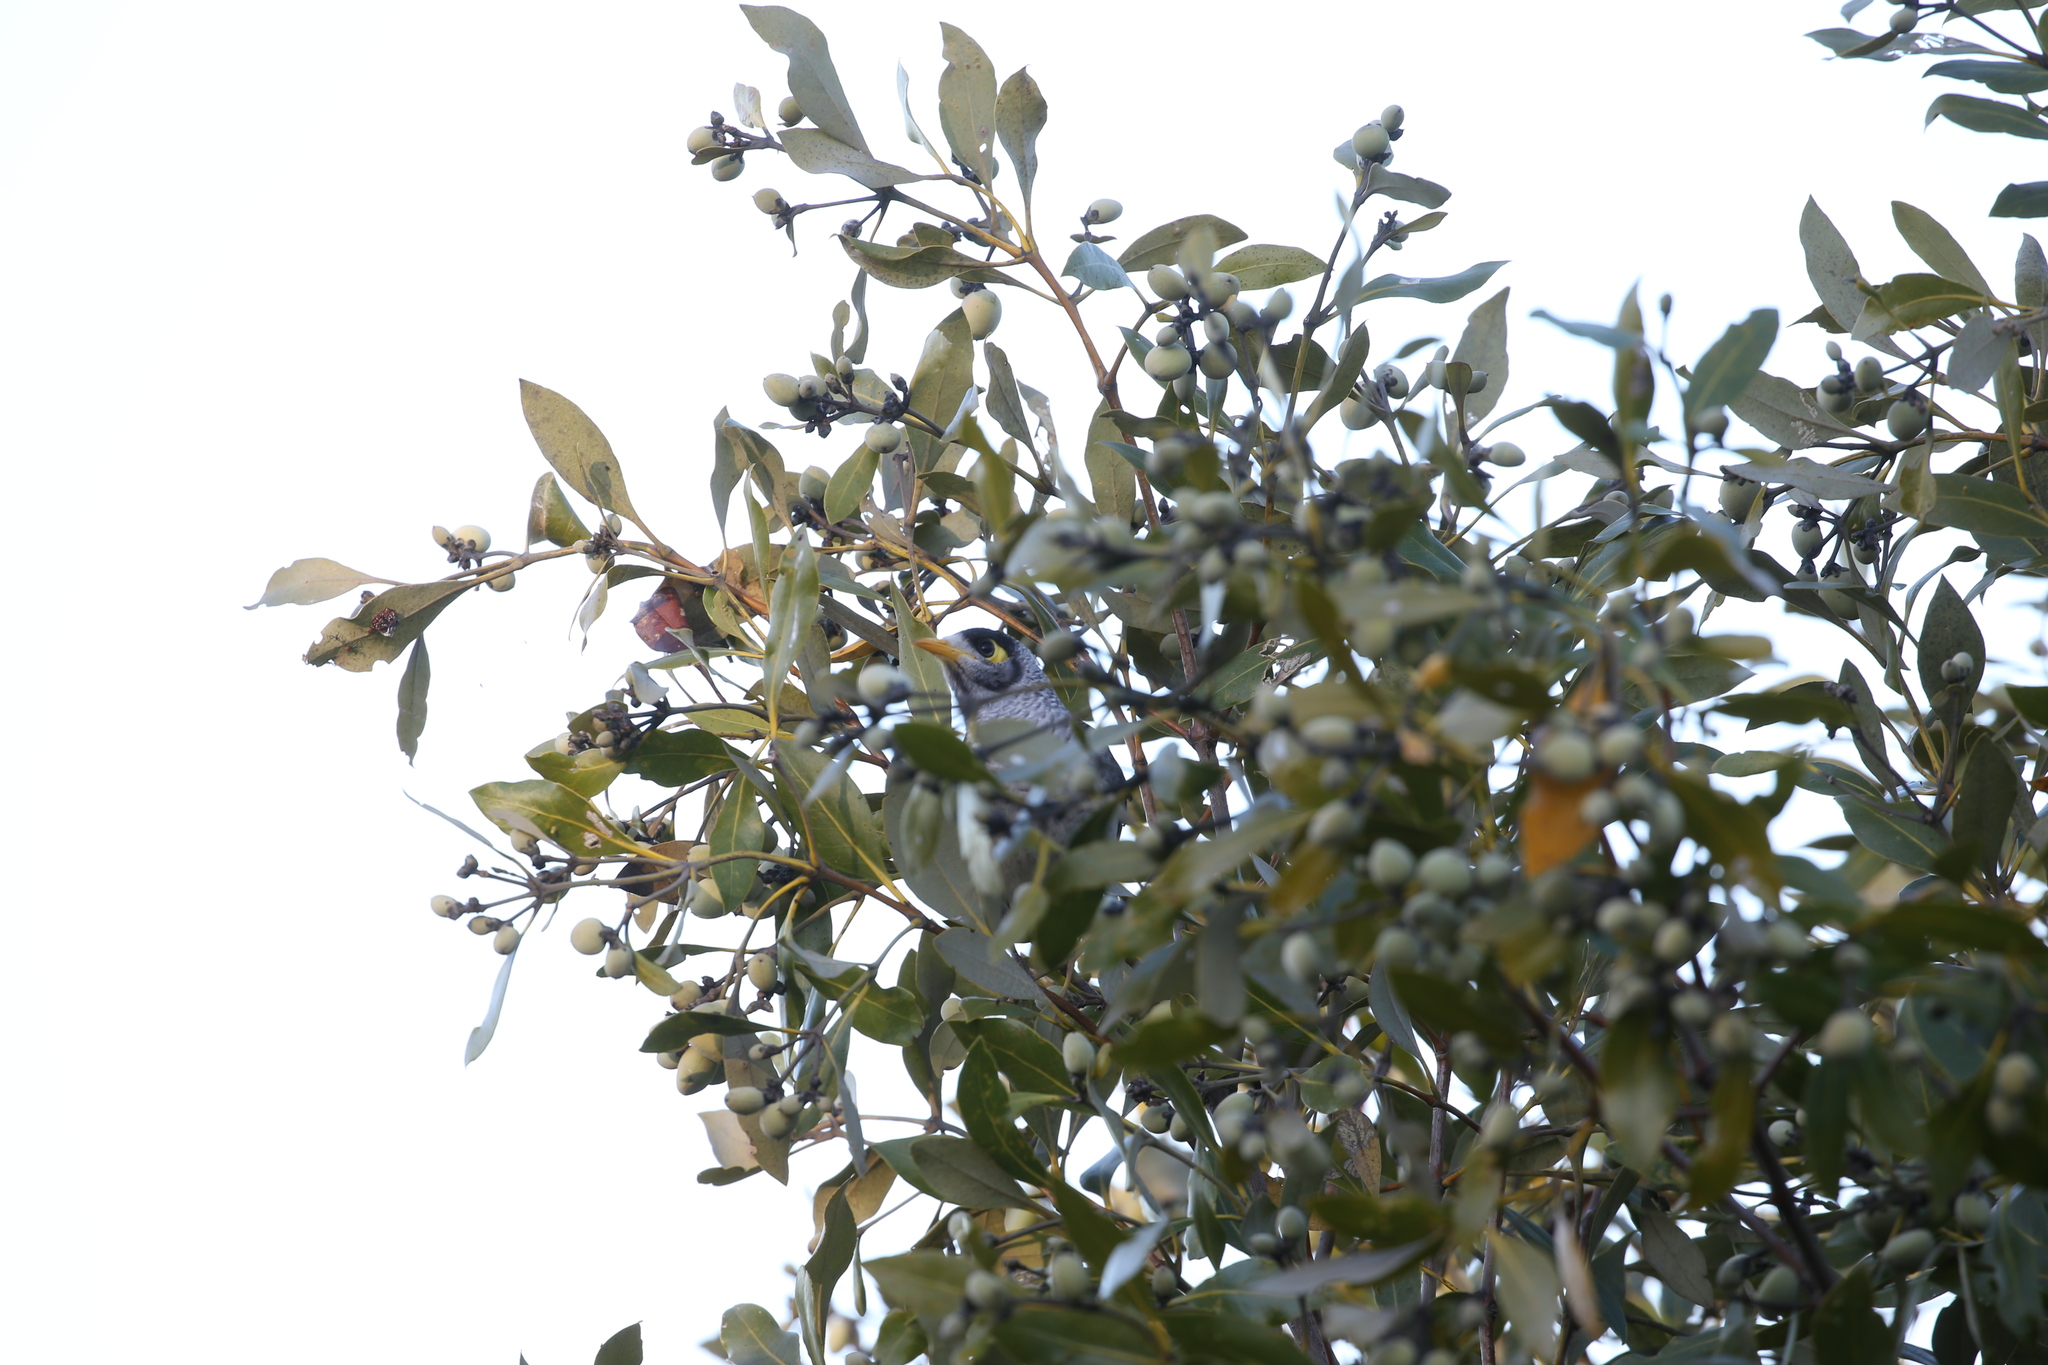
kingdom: Animalia
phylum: Chordata
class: Aves
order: Passeriformes
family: Meliphagidae
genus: Manorina
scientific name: Manorina melanocephala
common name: Noisy miner
